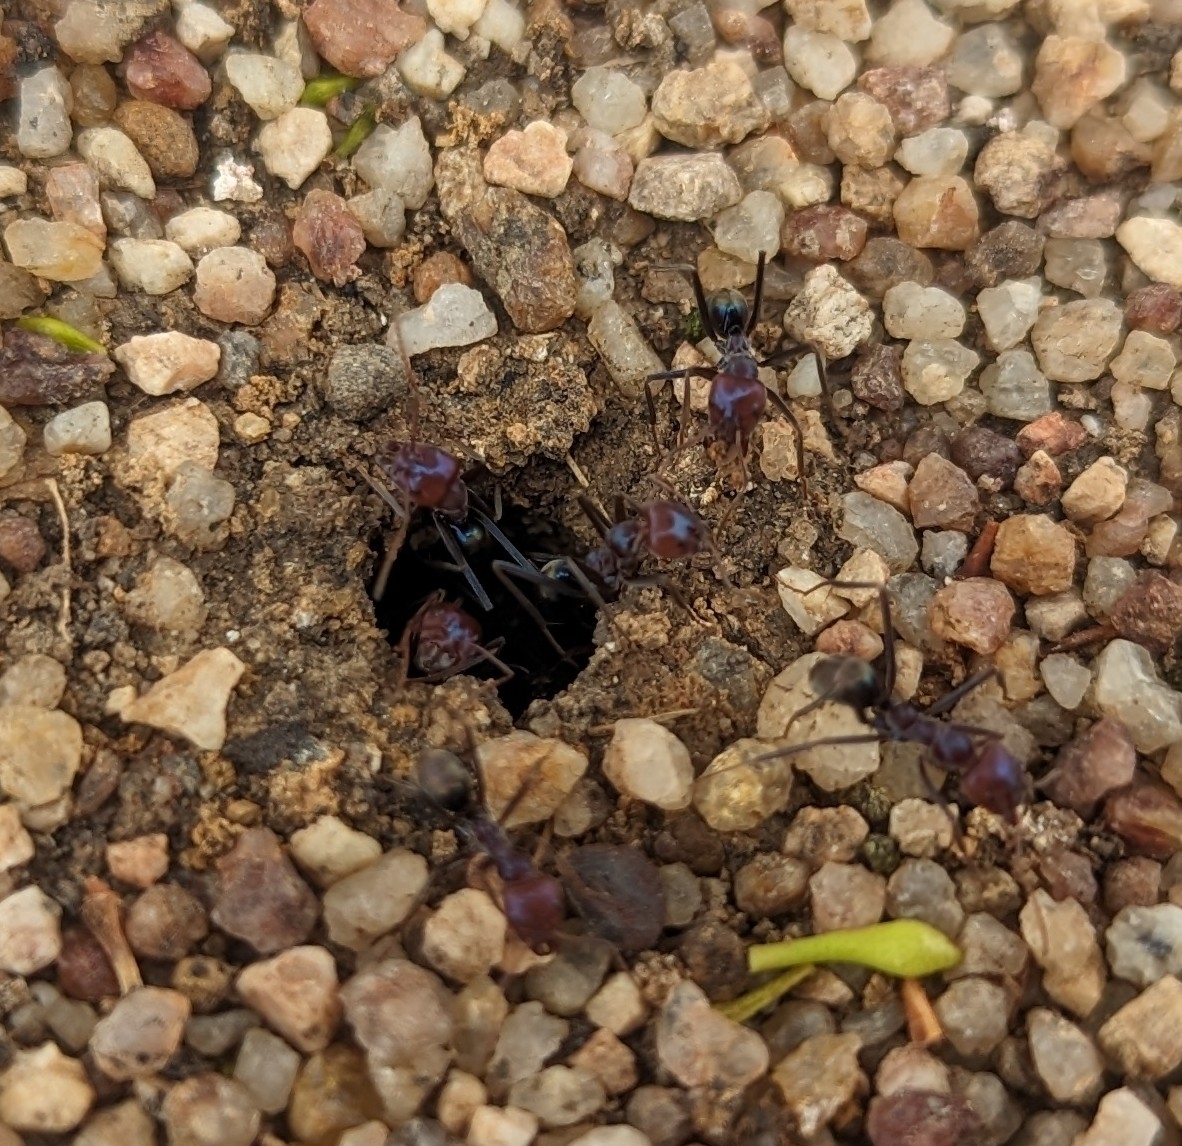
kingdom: Animalia
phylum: Arthropoda
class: Insecta
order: Hymenoptera
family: Formicidae
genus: Iridomyrmex
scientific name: Iridomyrmex purpureus
